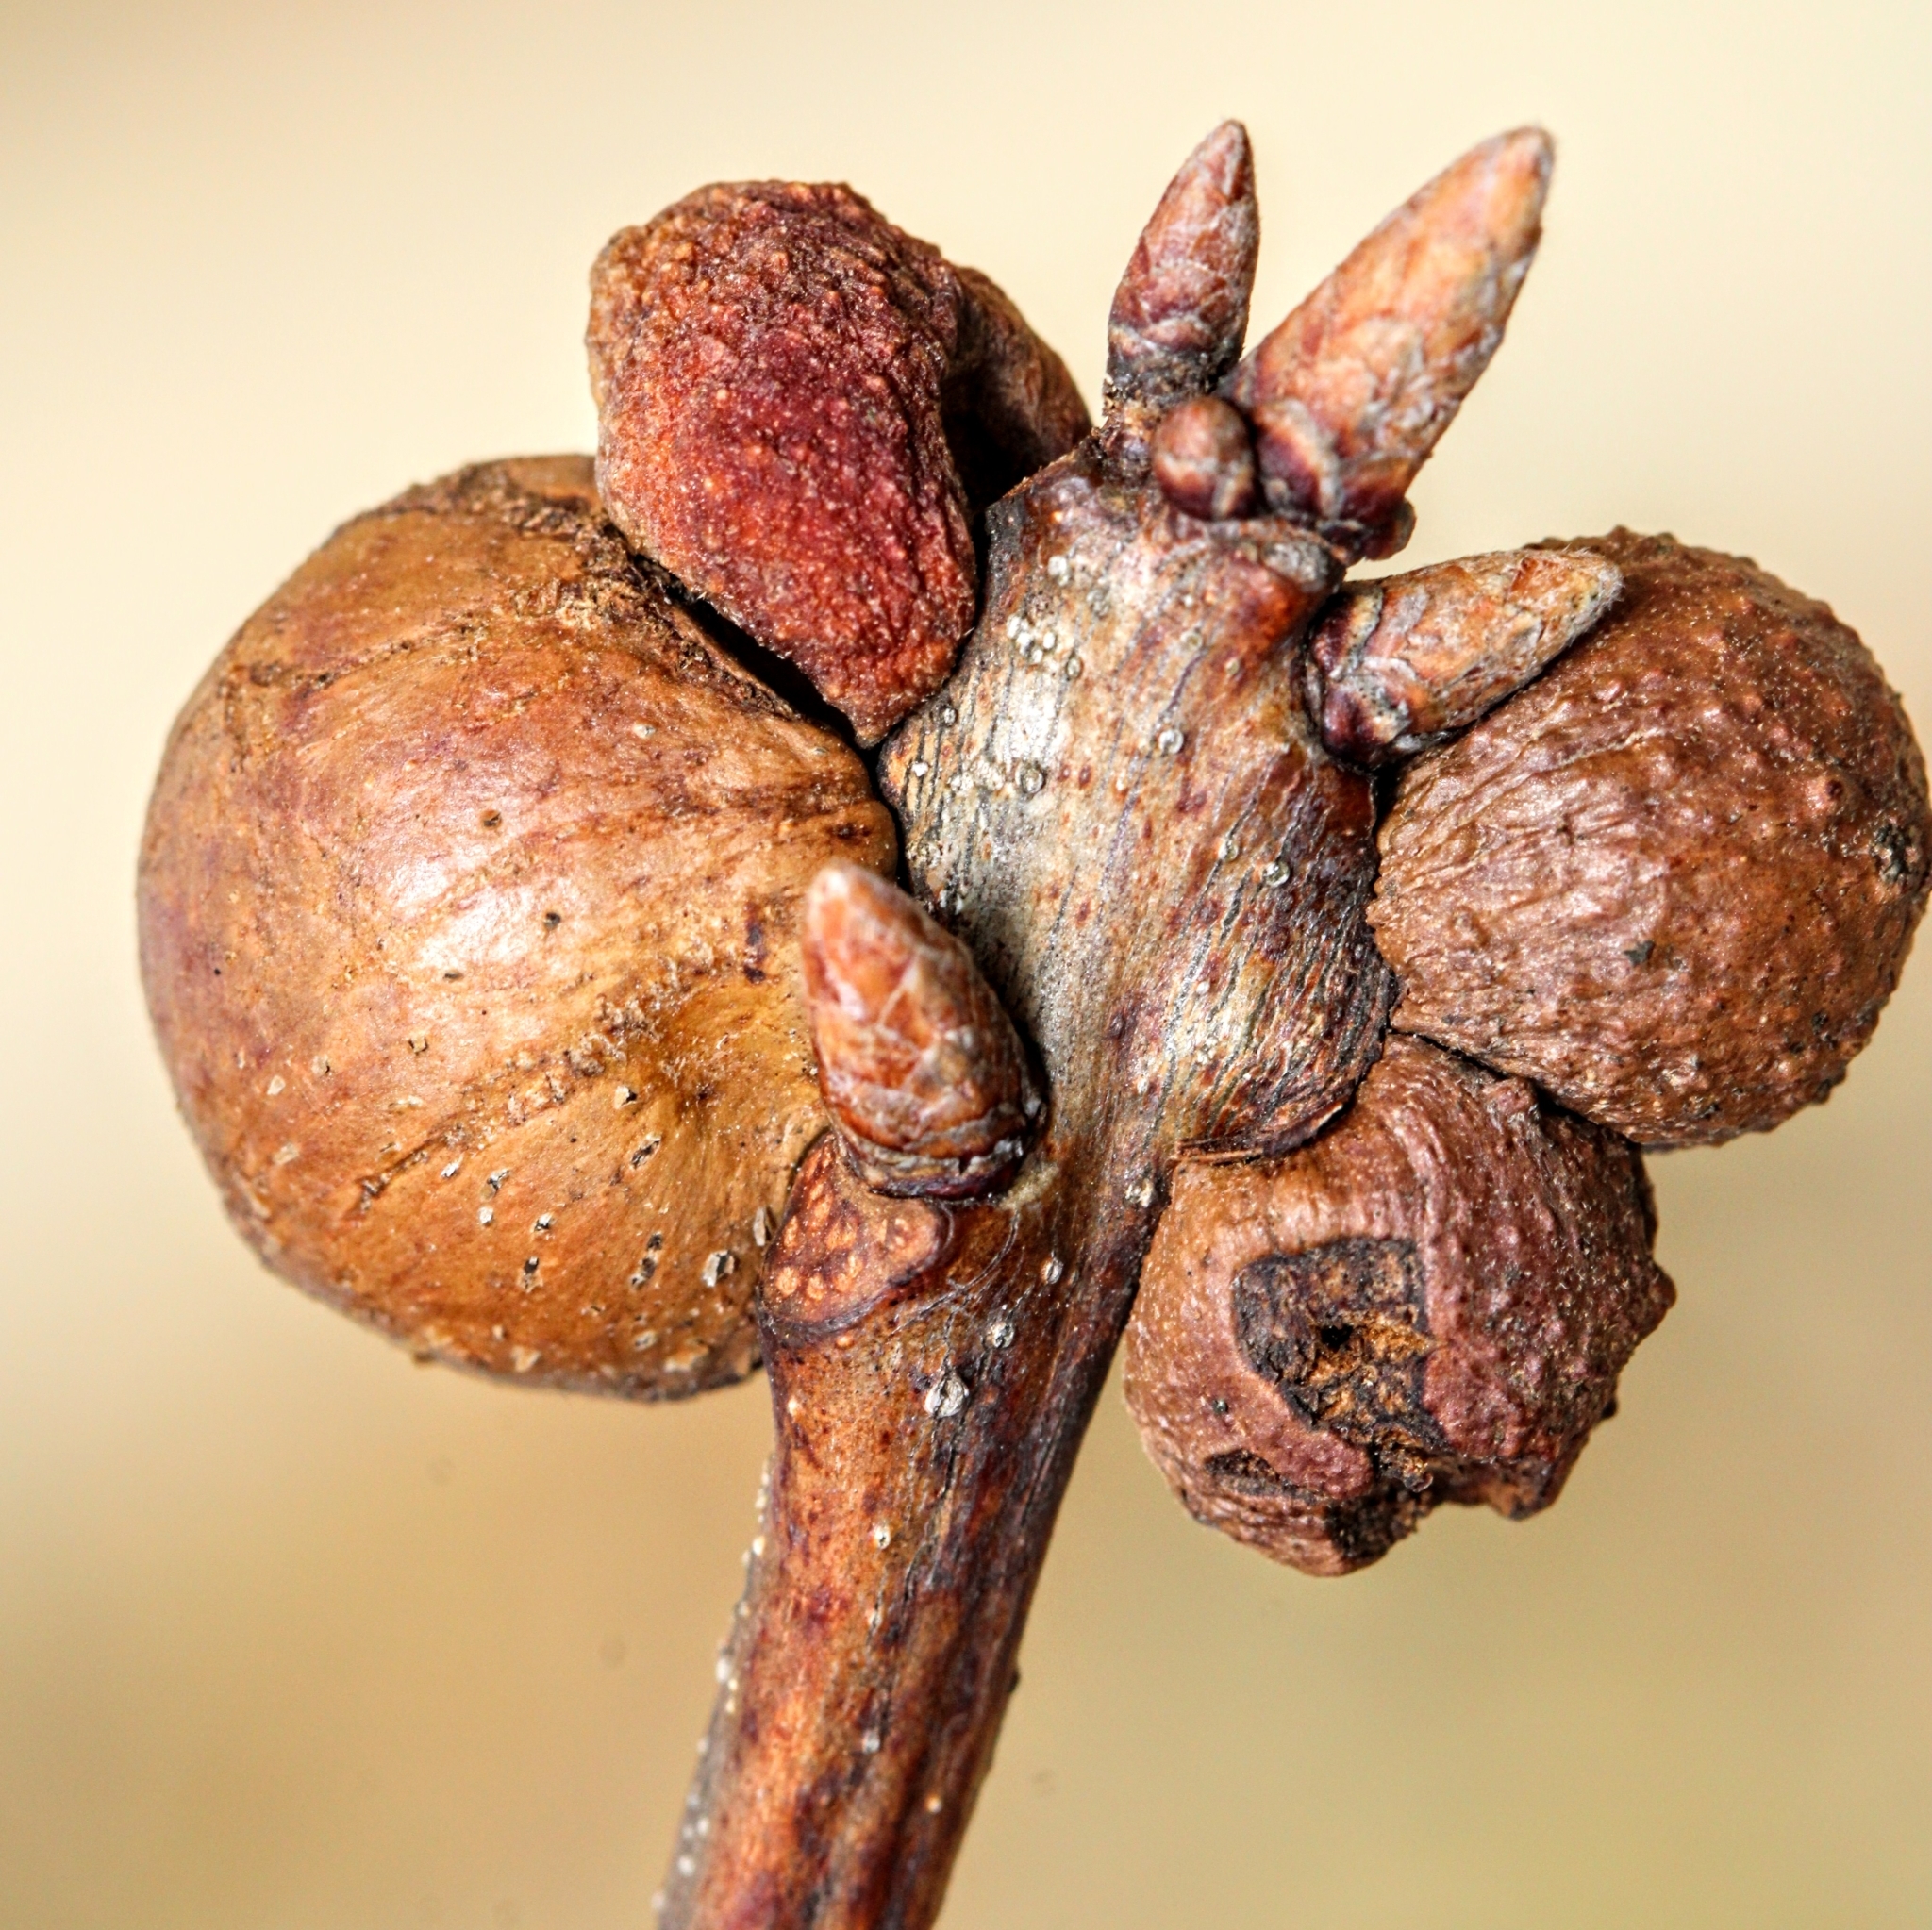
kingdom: Animalia
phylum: Arthropoda
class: Insecta
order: Hymenoptera
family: Cynipidae
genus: Disholcaspis
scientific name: Disholcaspis quercusglobulus
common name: Round bullet gall wasp
